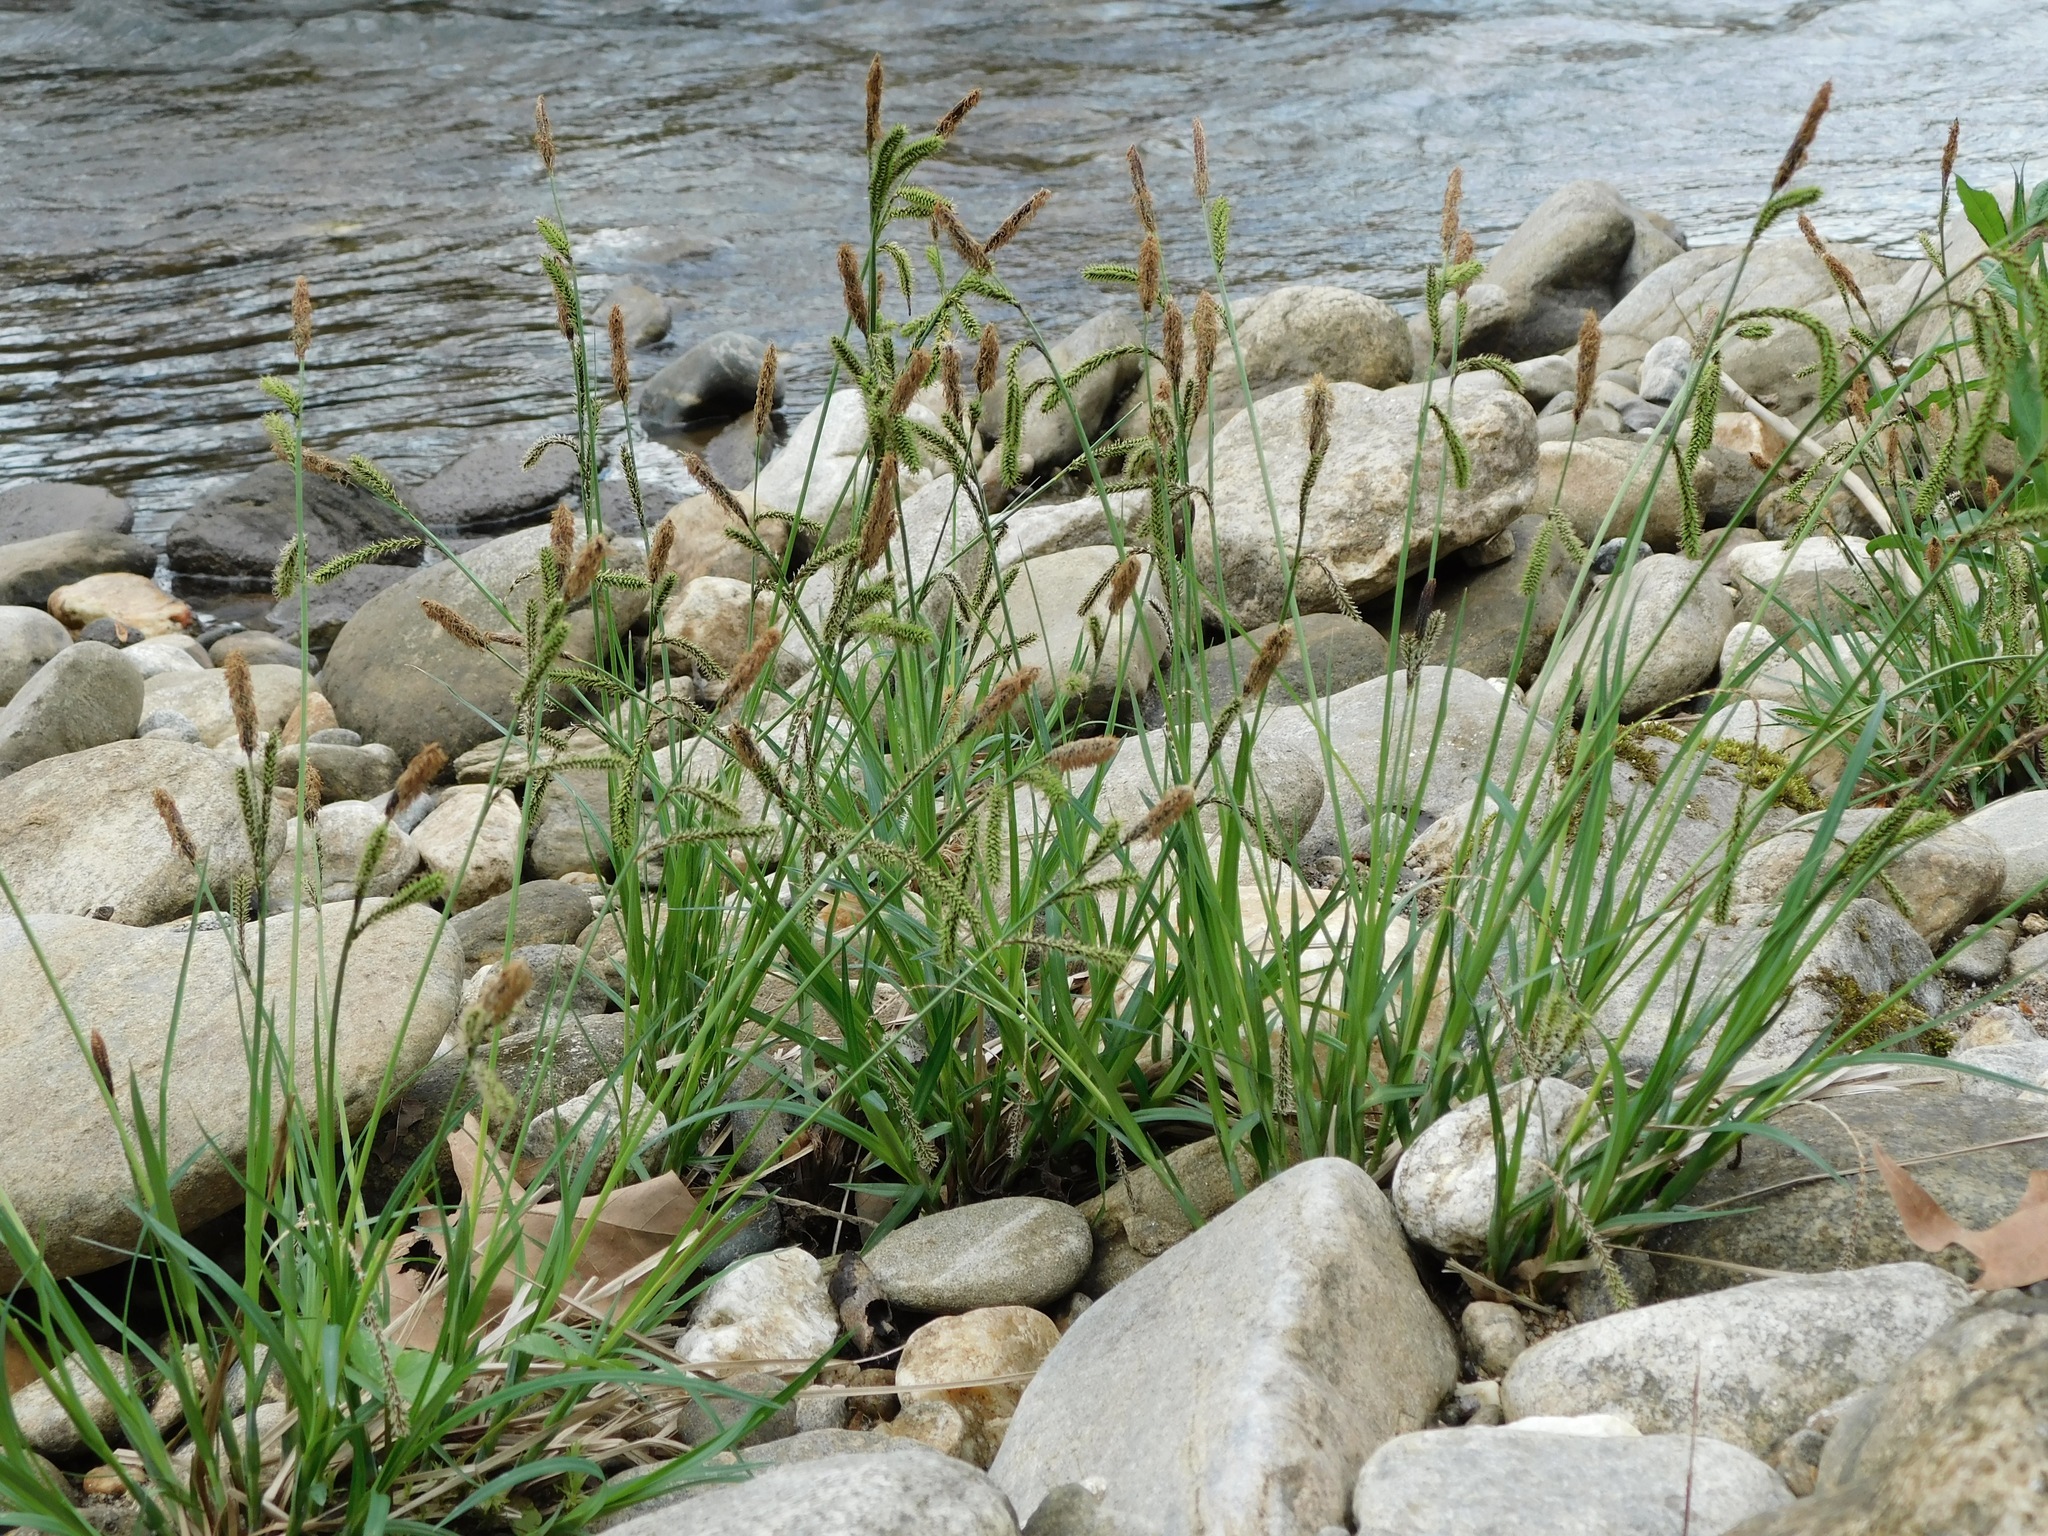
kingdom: Plantae
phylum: Tracheophyta
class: Liliopsida
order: Poales
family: Cyperaceae
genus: Carex
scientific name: Carex torta
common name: Twisted sedge
